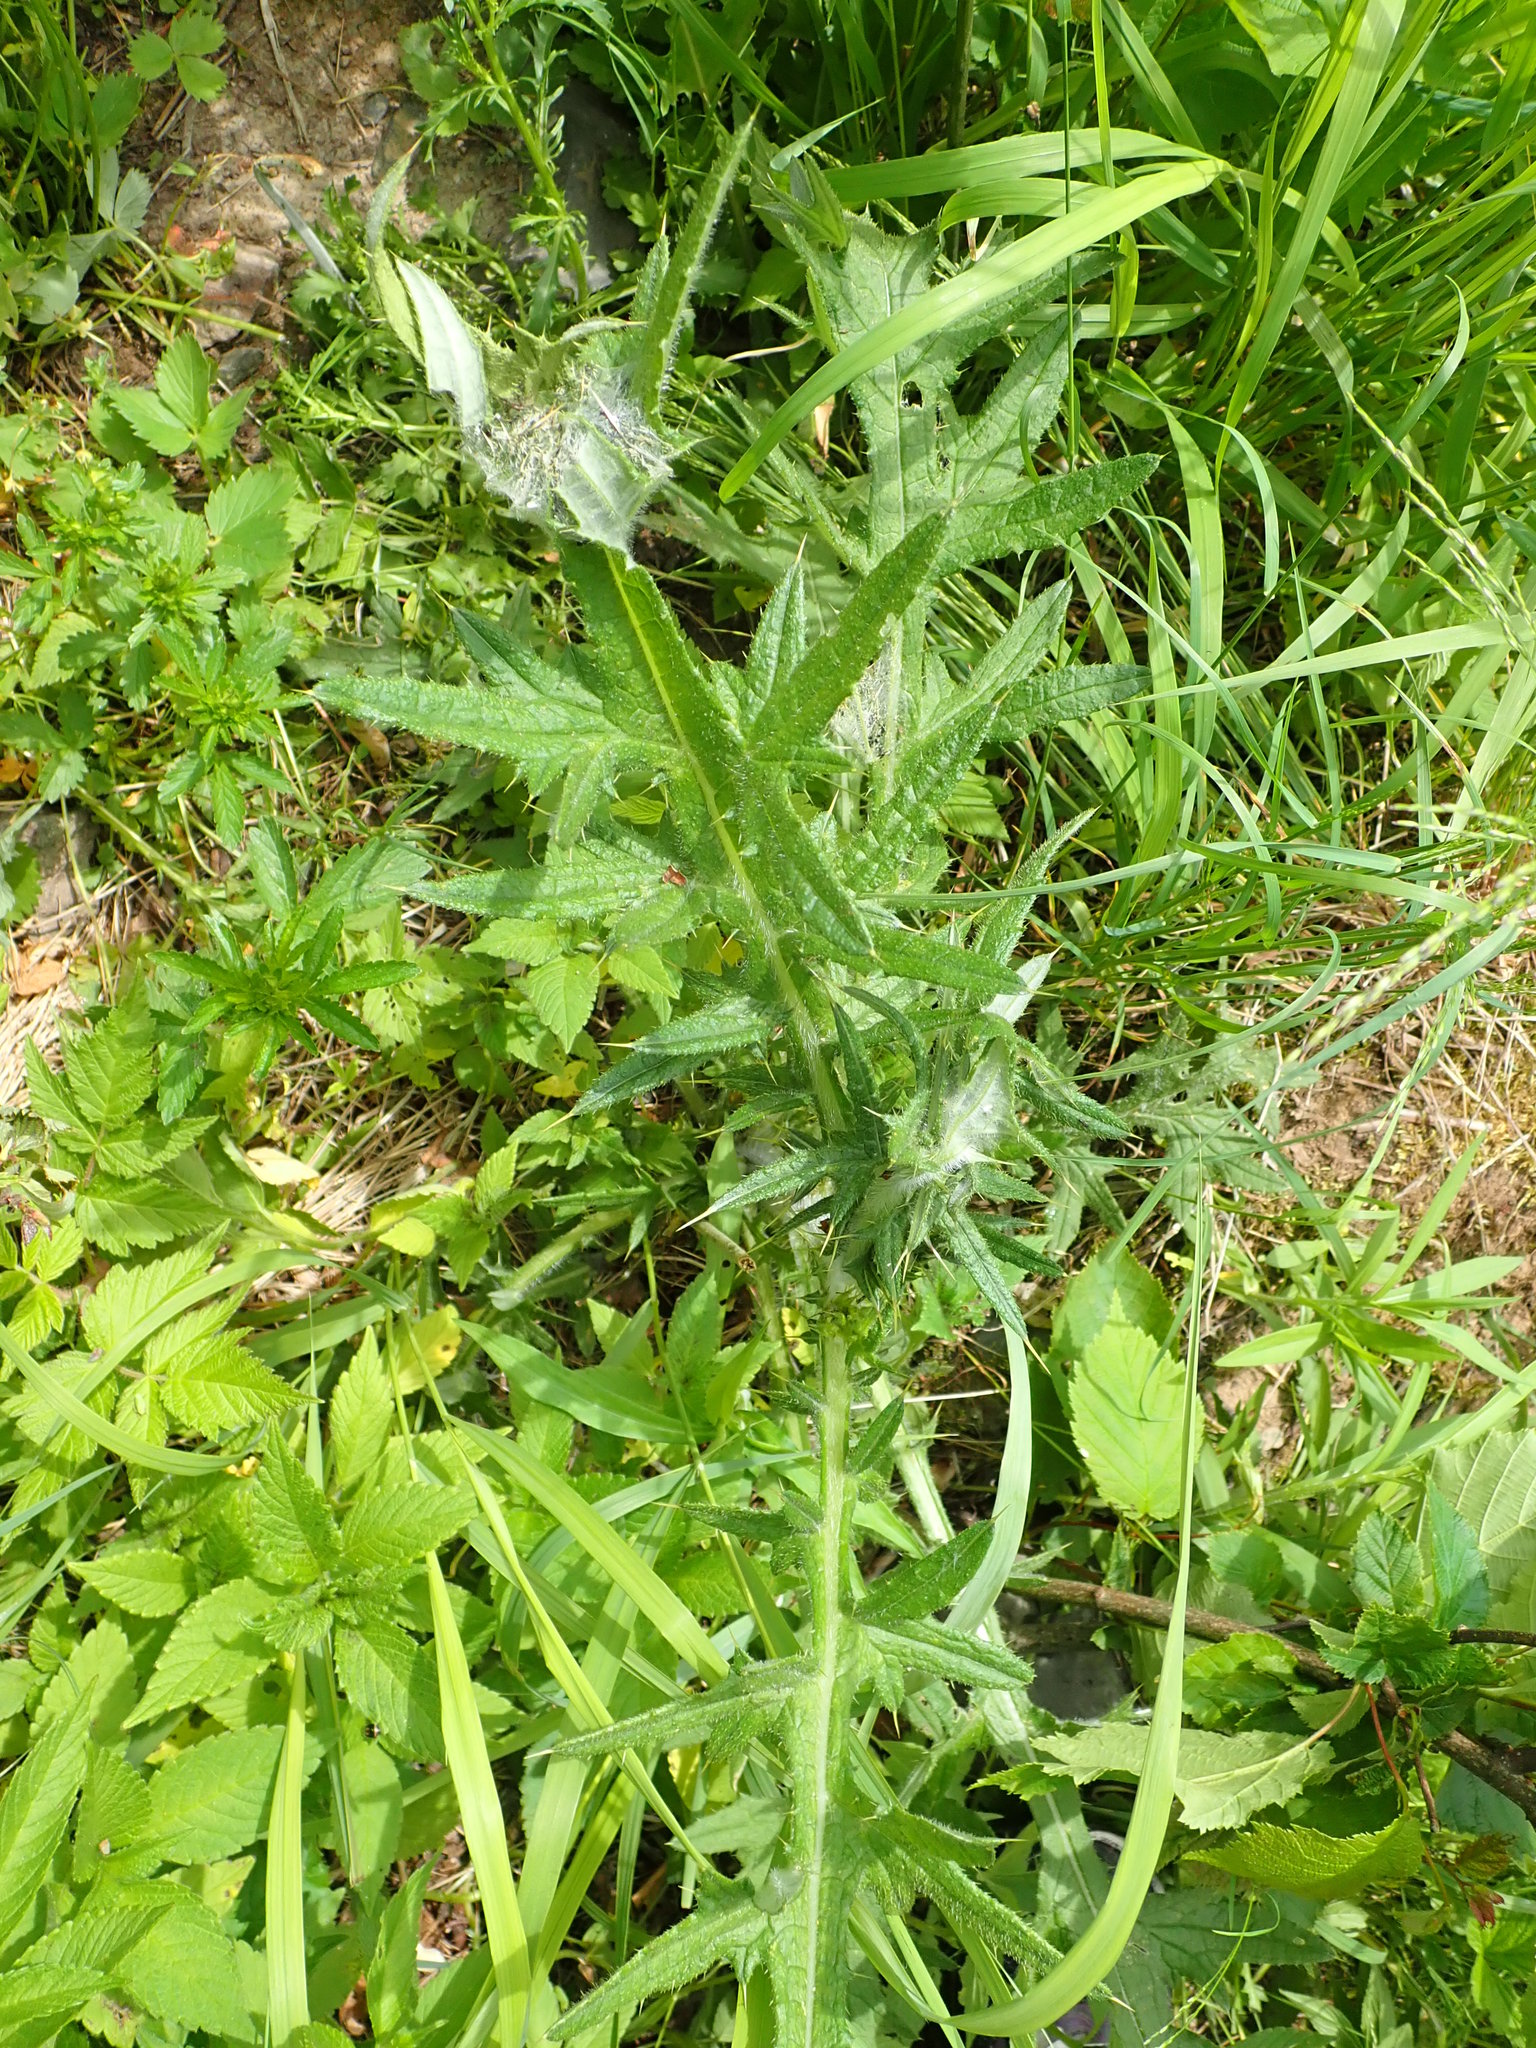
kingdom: Plantae
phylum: Tracheophyta
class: Magnoliopsida
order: Asterales
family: Asteraceae
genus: Cirsium
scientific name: Cirsium vulgare
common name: Bull thistle
